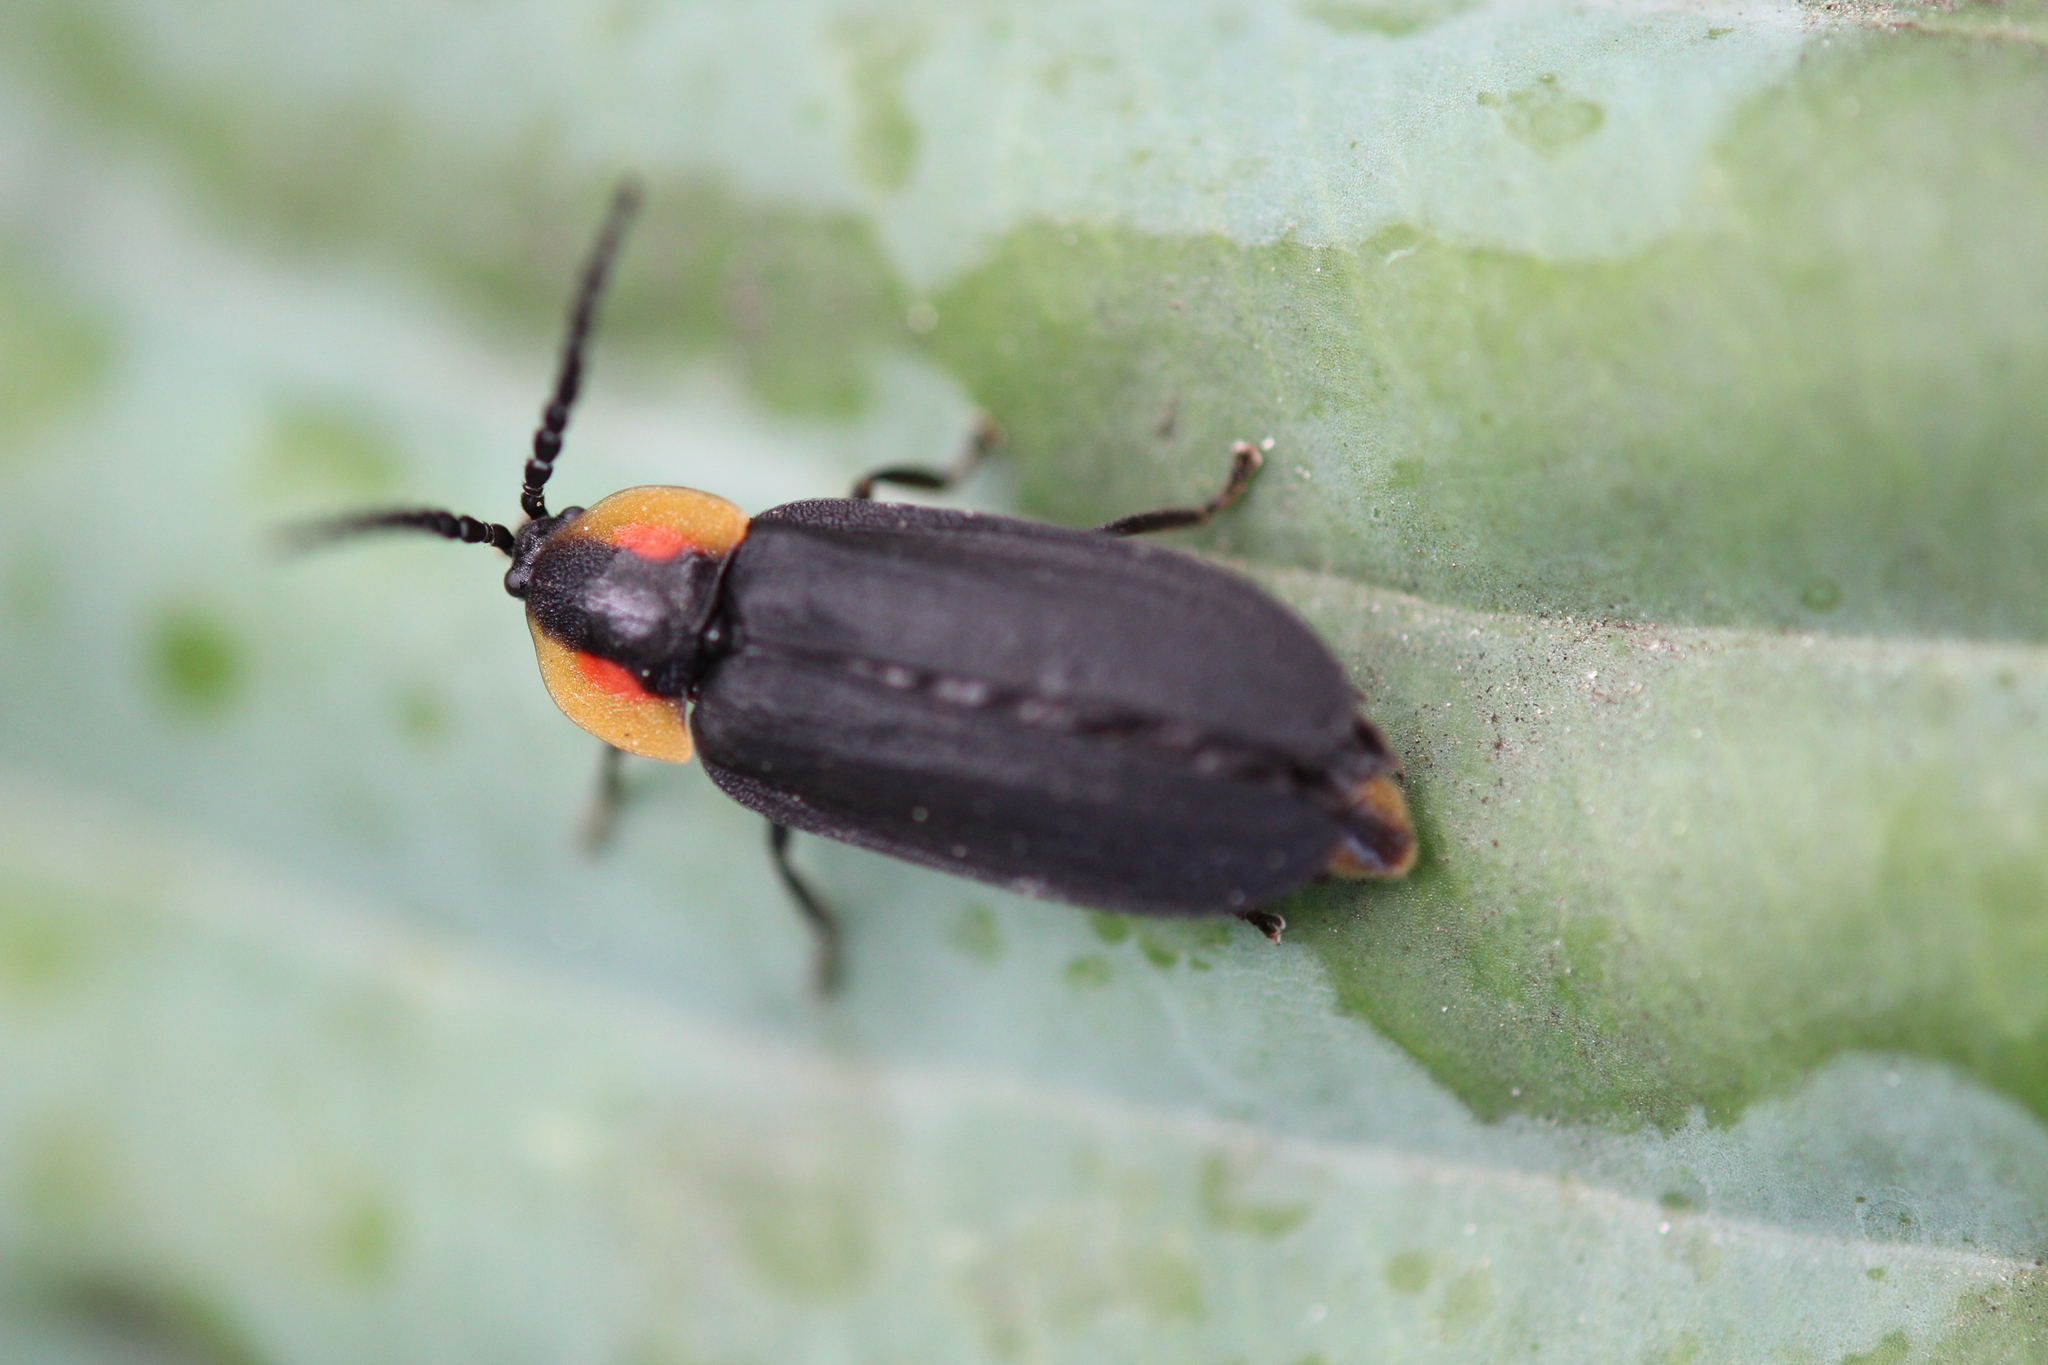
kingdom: Animalia
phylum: Arthropoda
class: Insecta
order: Coleoptera
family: Lampyridae
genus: Lucidota
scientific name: Lucidota atra
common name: Black firefly
